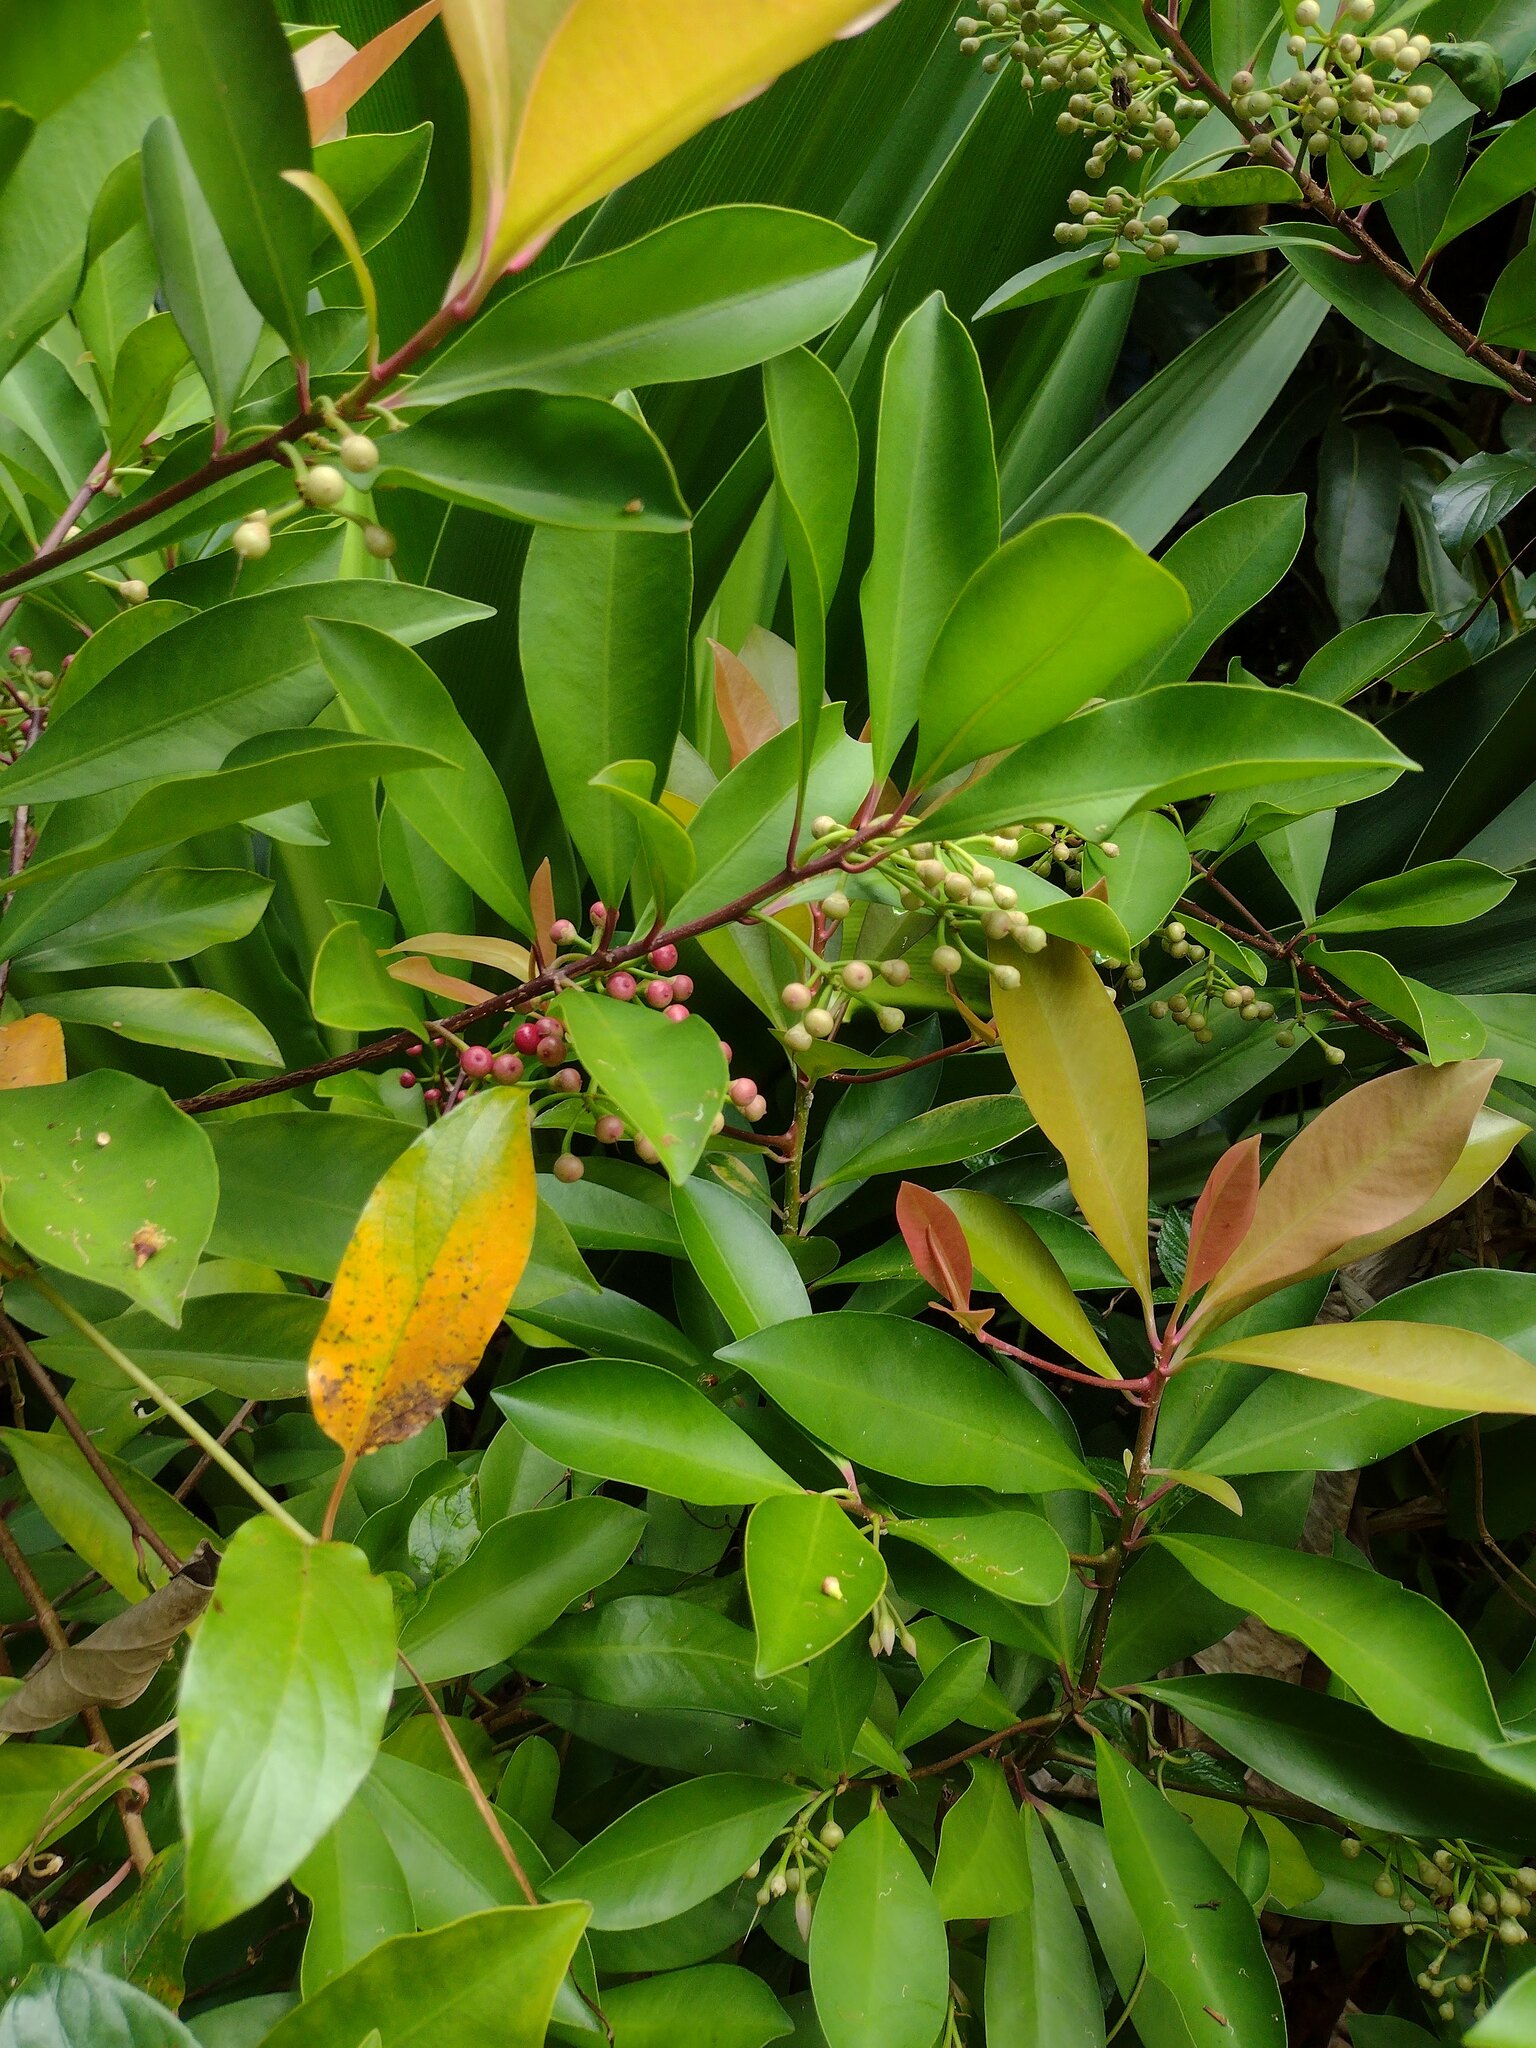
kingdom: Plantae
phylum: Tracheophyta
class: Magnoliopsida
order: Ericales
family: Primulaceae
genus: Ardisia
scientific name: Ardisia elliptica
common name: Shoebutton
